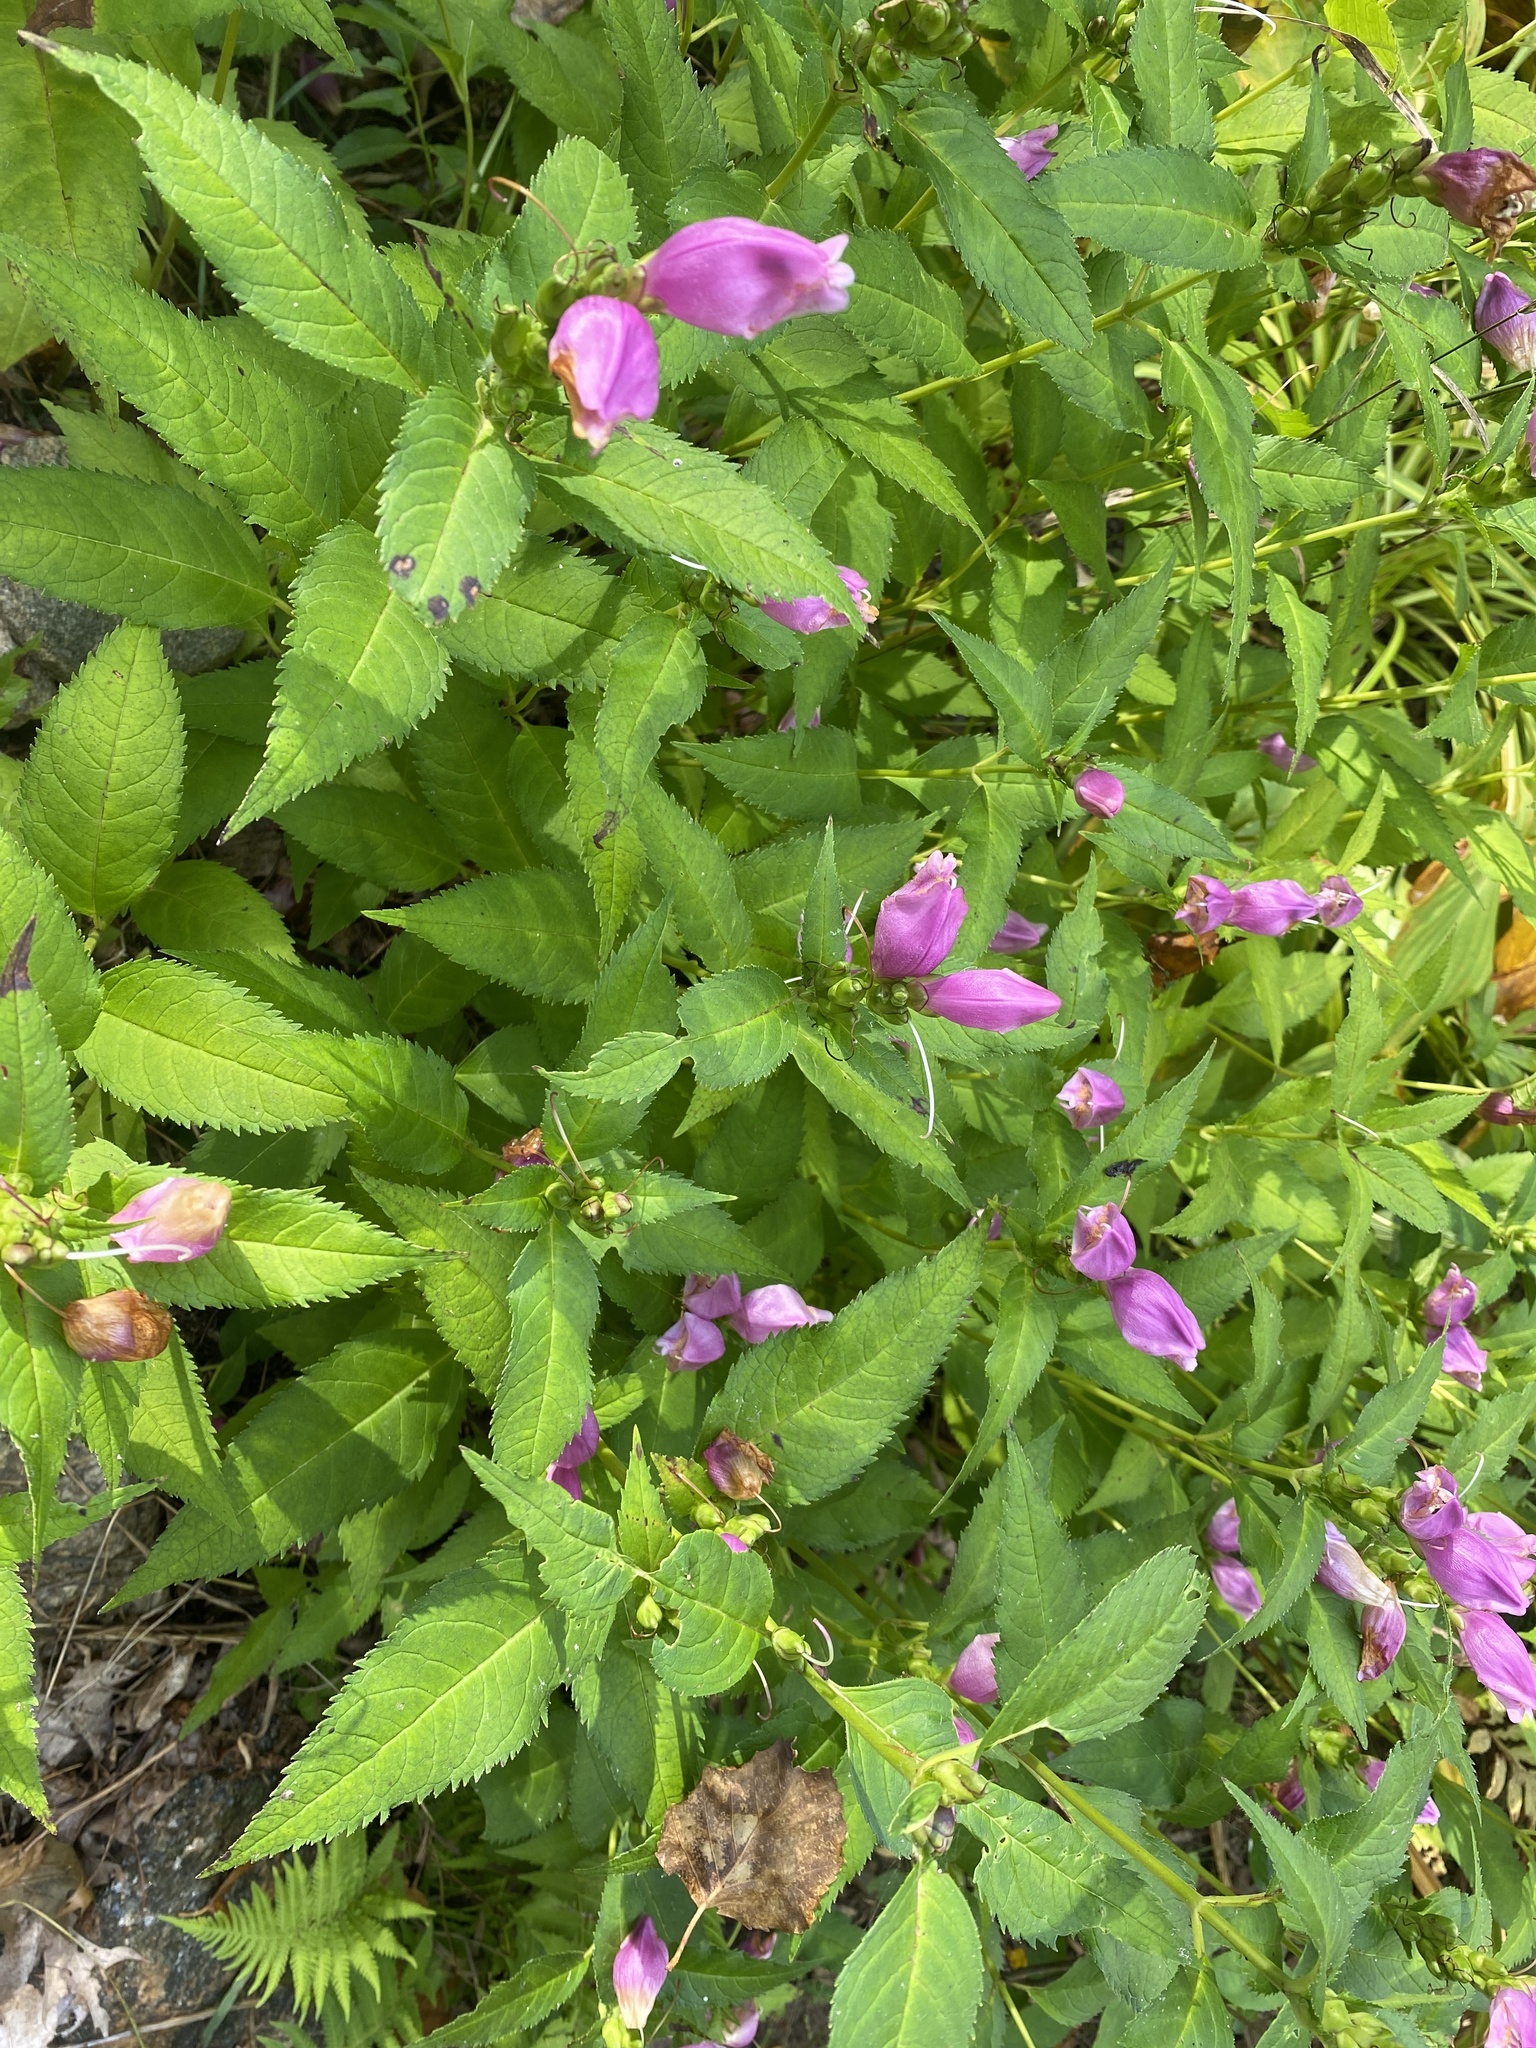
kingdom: Plantae
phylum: Tracheophyta
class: Magnoliopsida
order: Lamiales
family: Plantaginaceae
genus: Chelone
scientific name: Chelone lyonii
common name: Pink turtlehead
